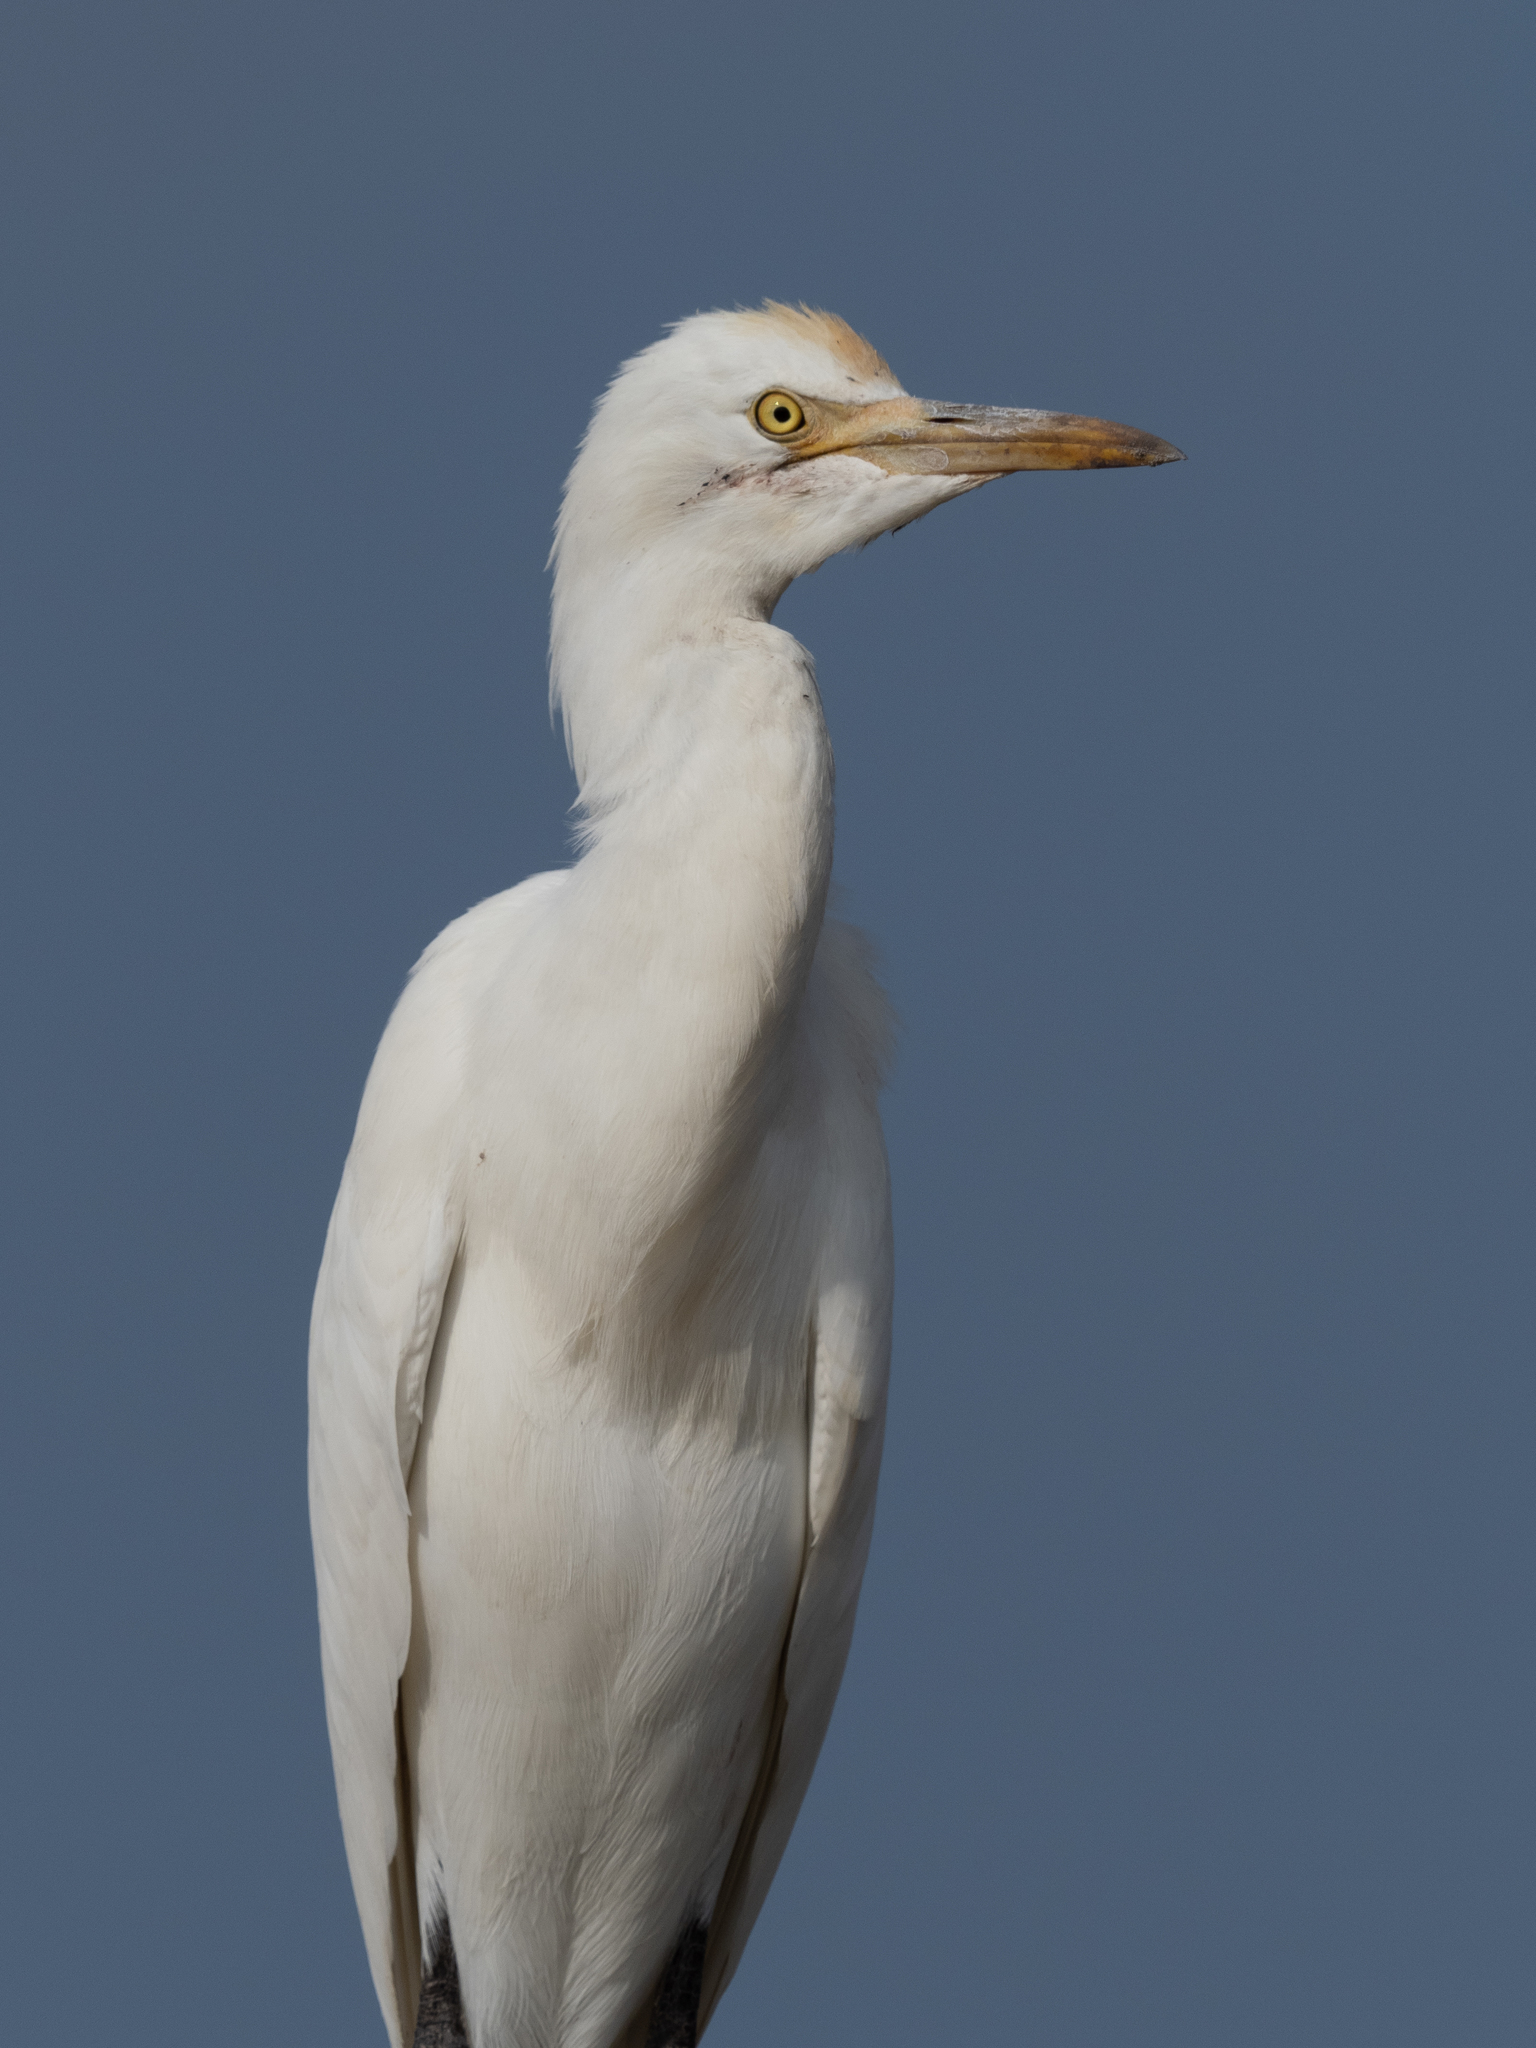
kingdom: Animalia
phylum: Chordata
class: Aves
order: Pelecaniformes
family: Ardeidae
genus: Bubulcus
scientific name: Bubulcus coromandus
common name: Eastern cattle egret
